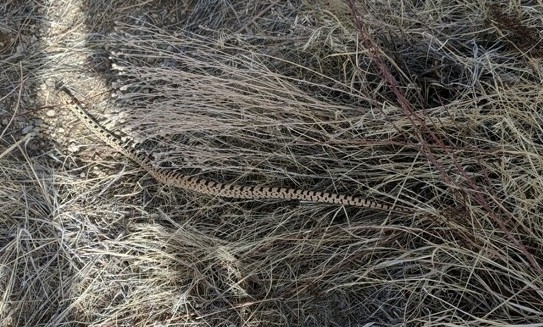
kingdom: Animalia
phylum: Chordata
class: Squamata
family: Colubridae
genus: Pituophis
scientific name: Pituophis catenifer
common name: Gopher snake
